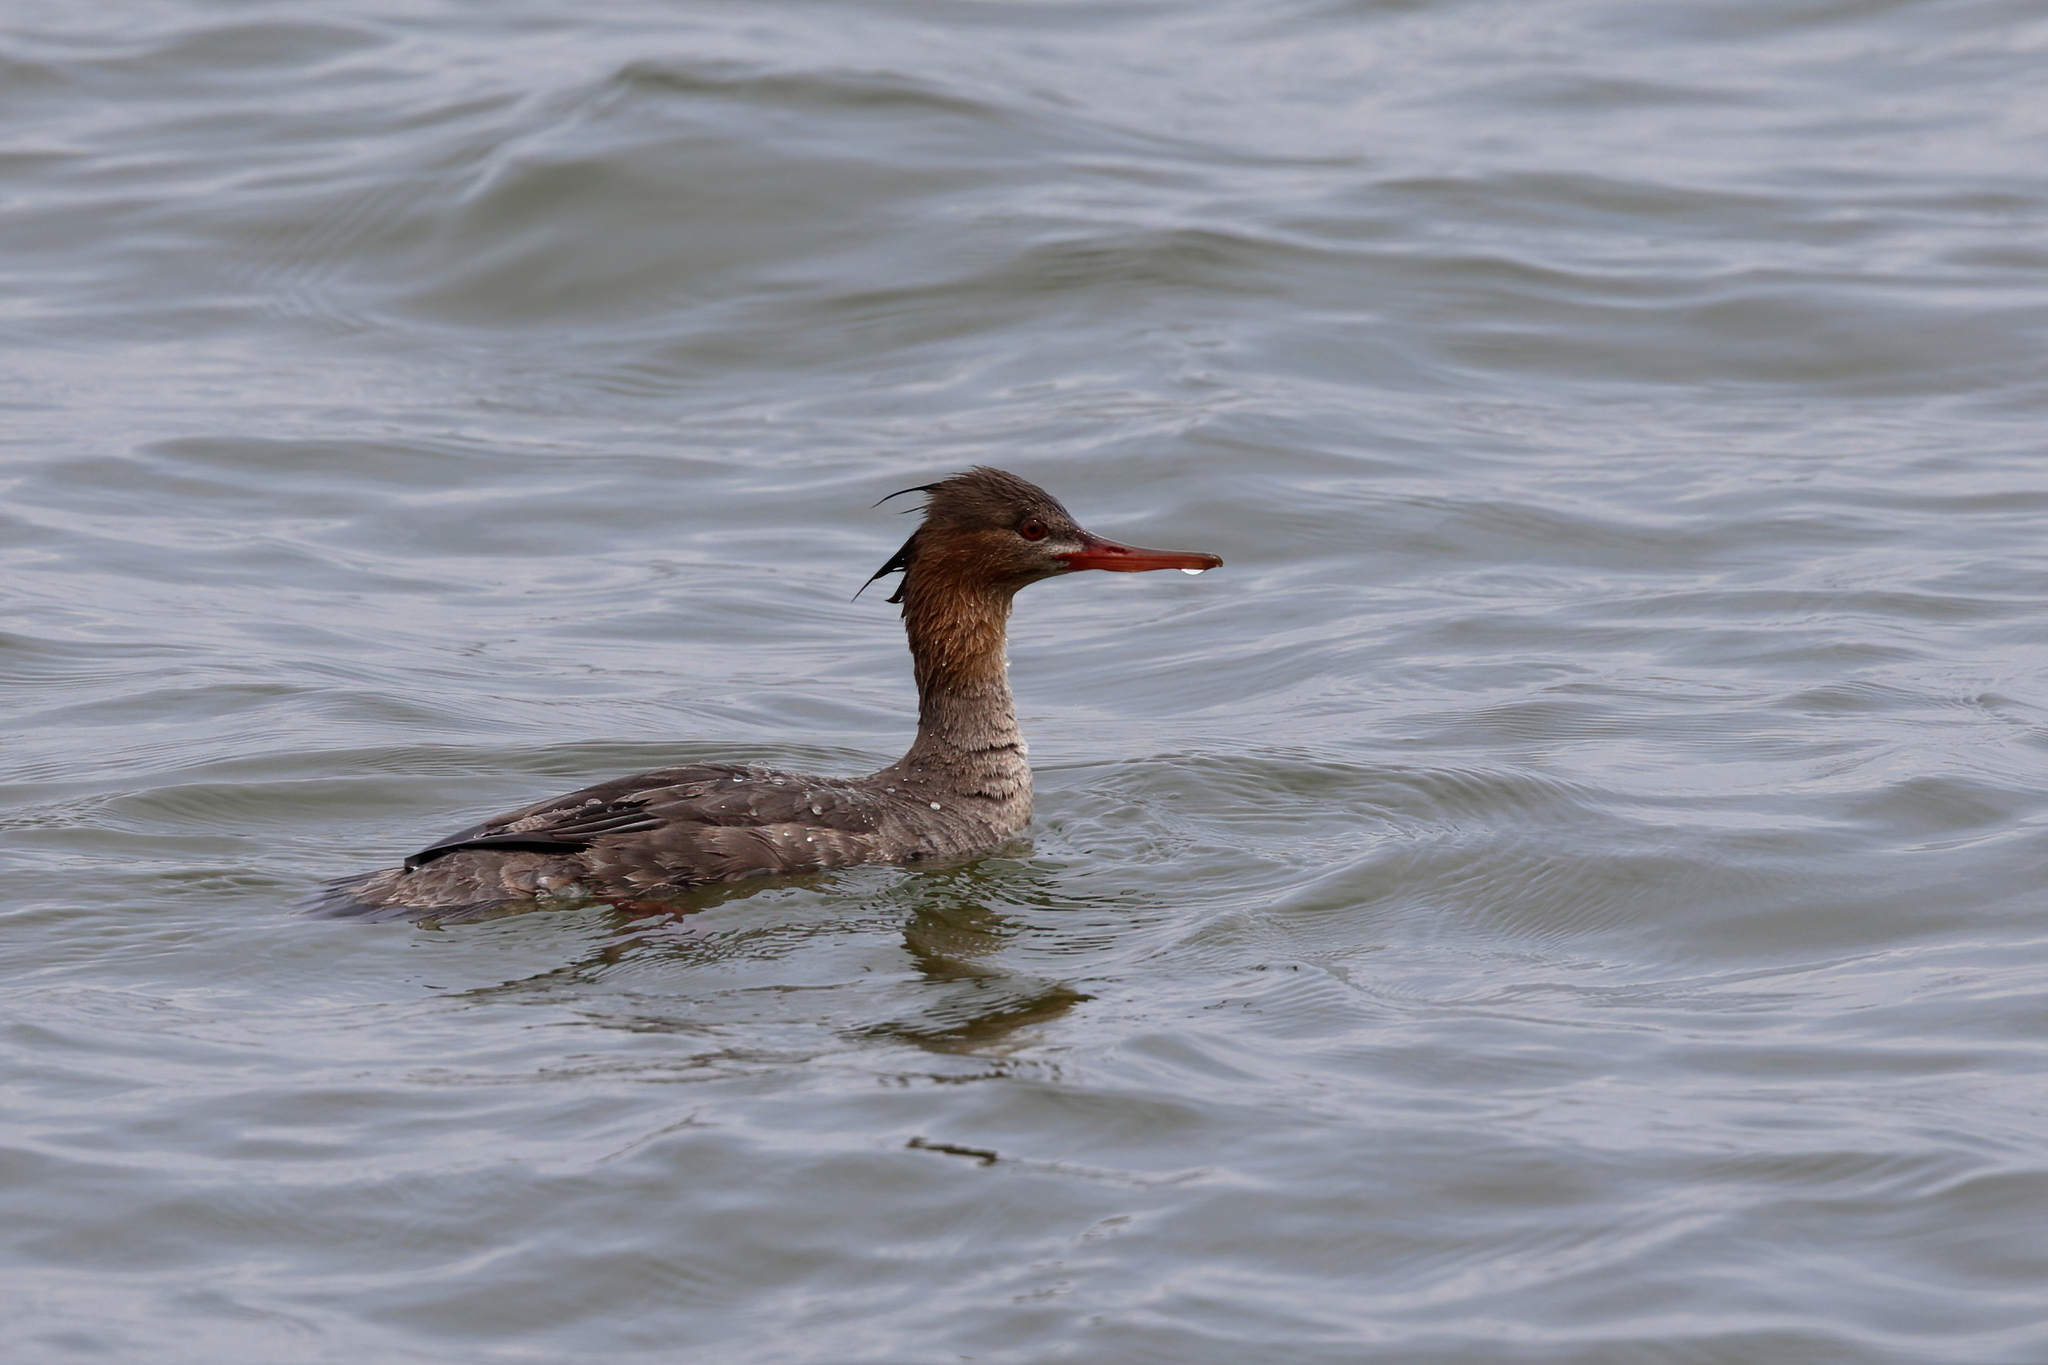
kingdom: Animalia
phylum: Chordata
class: Aves
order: Anseriformes
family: Anatidae
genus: Mergus
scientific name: Mergus serrator
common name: Red-breasted merganser
